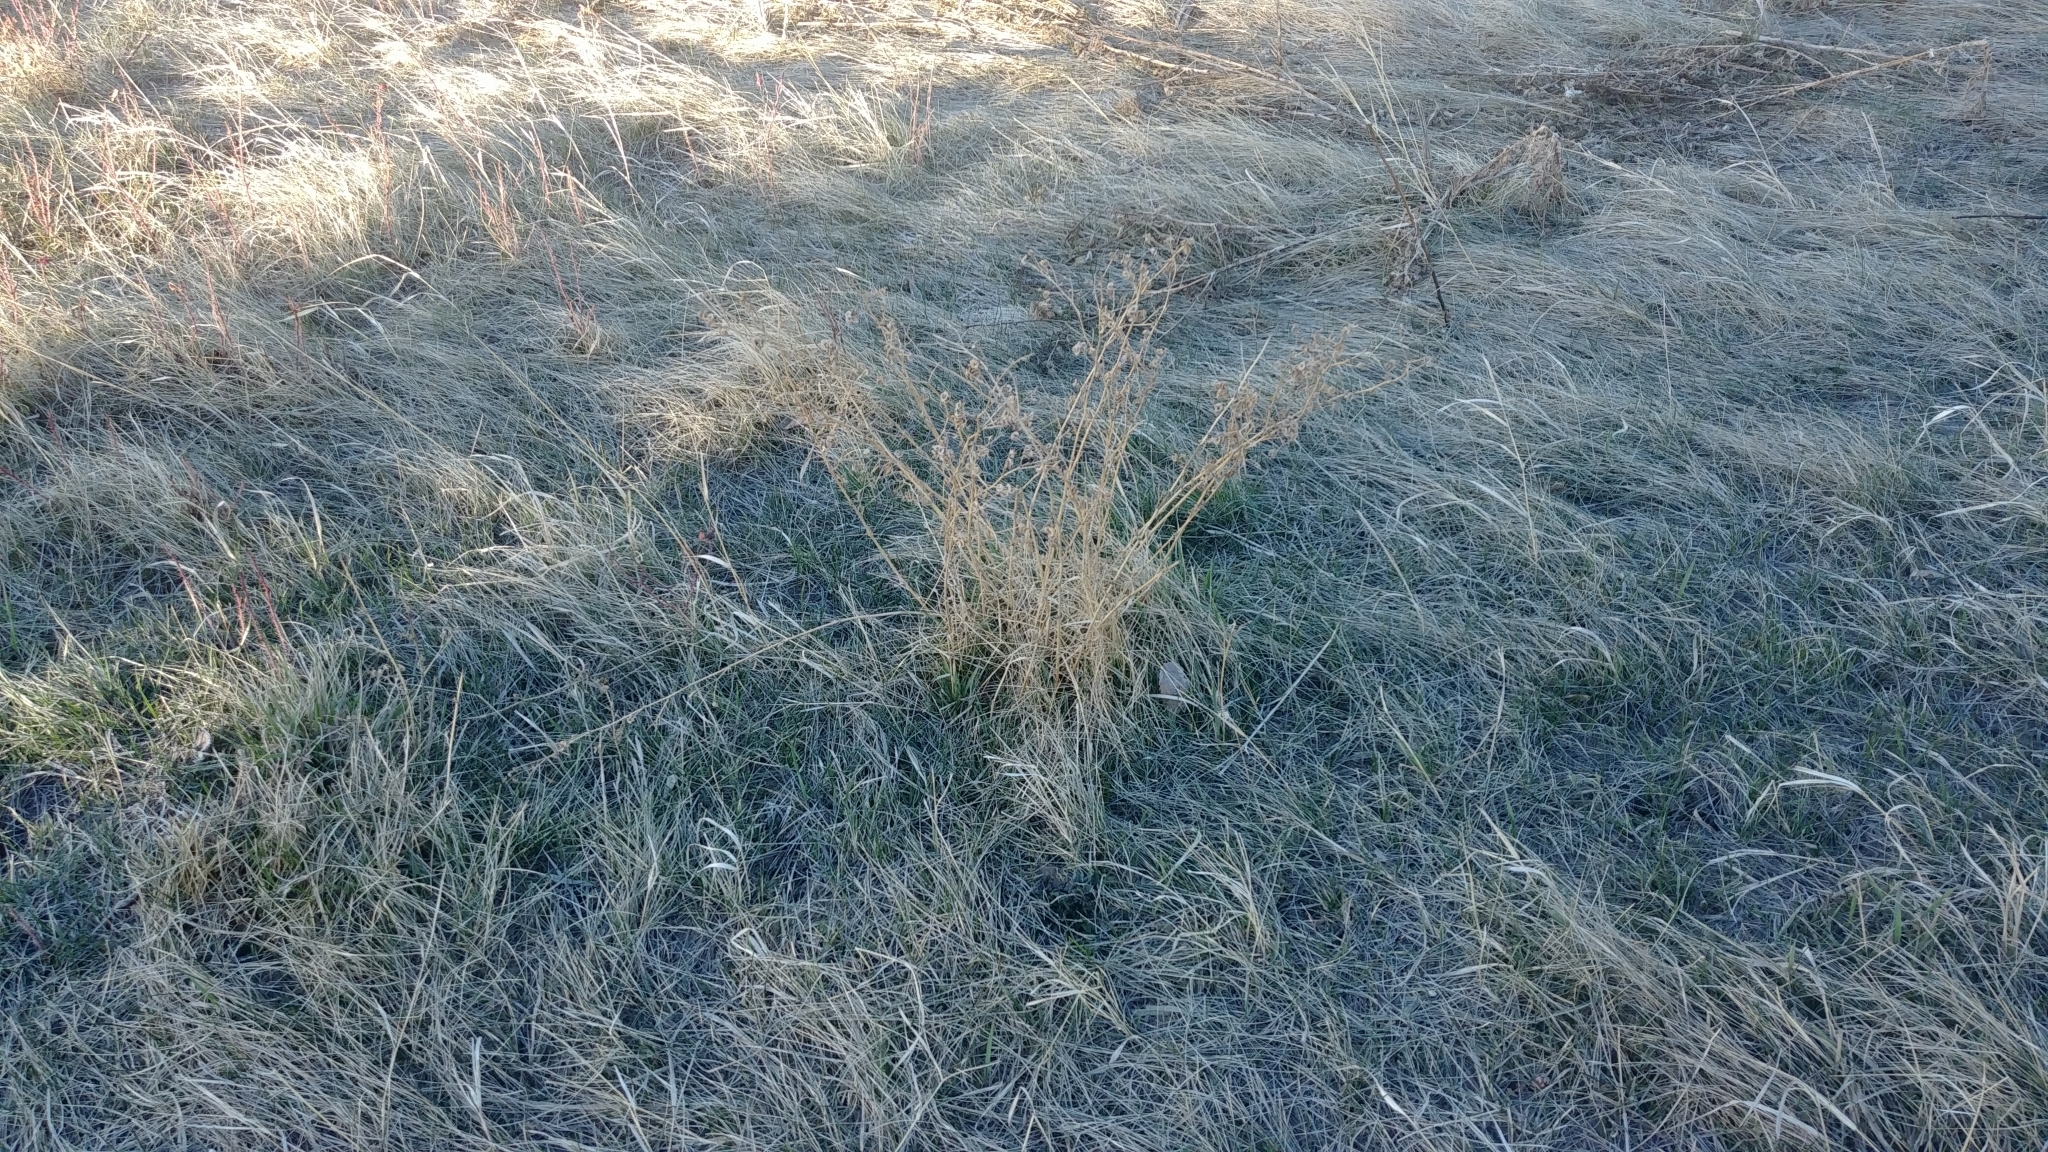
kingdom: Plantae
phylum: Tracheophyta
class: Magnoliopsida
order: Fabales
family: Fabaceae
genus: Medicago
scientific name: Medicago sativa
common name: Alfalfa
